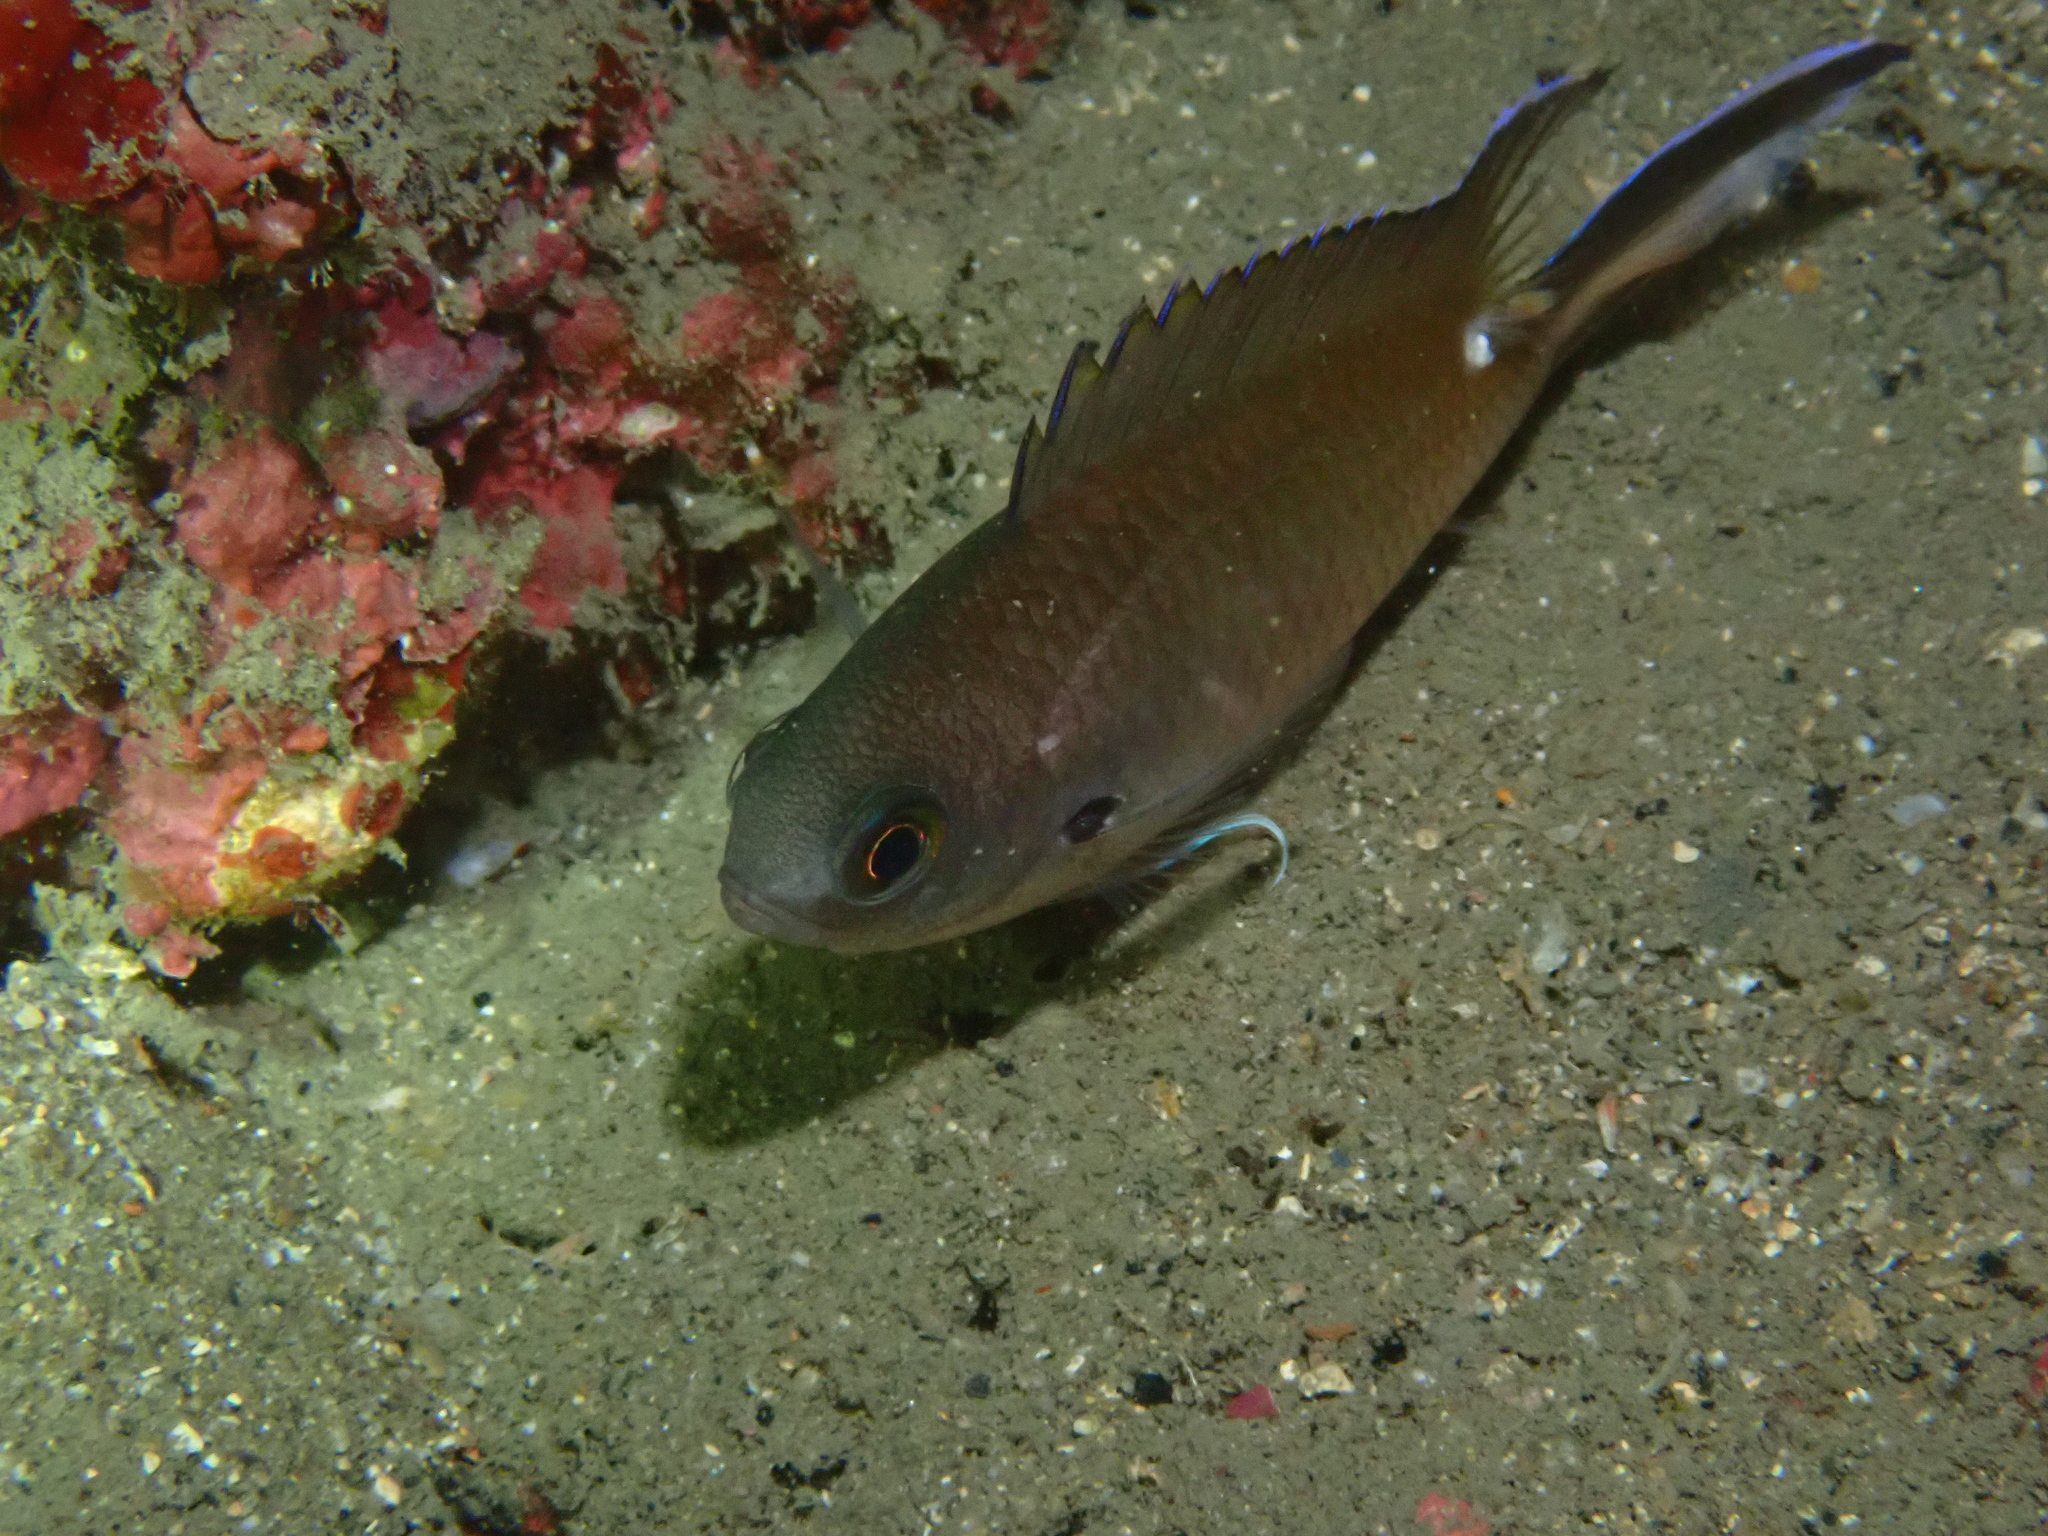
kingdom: Animalia
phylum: Chordata
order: Perciformes
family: Pomacentridae
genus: Chromis
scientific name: Chromis fumea
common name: Smokey chromis
